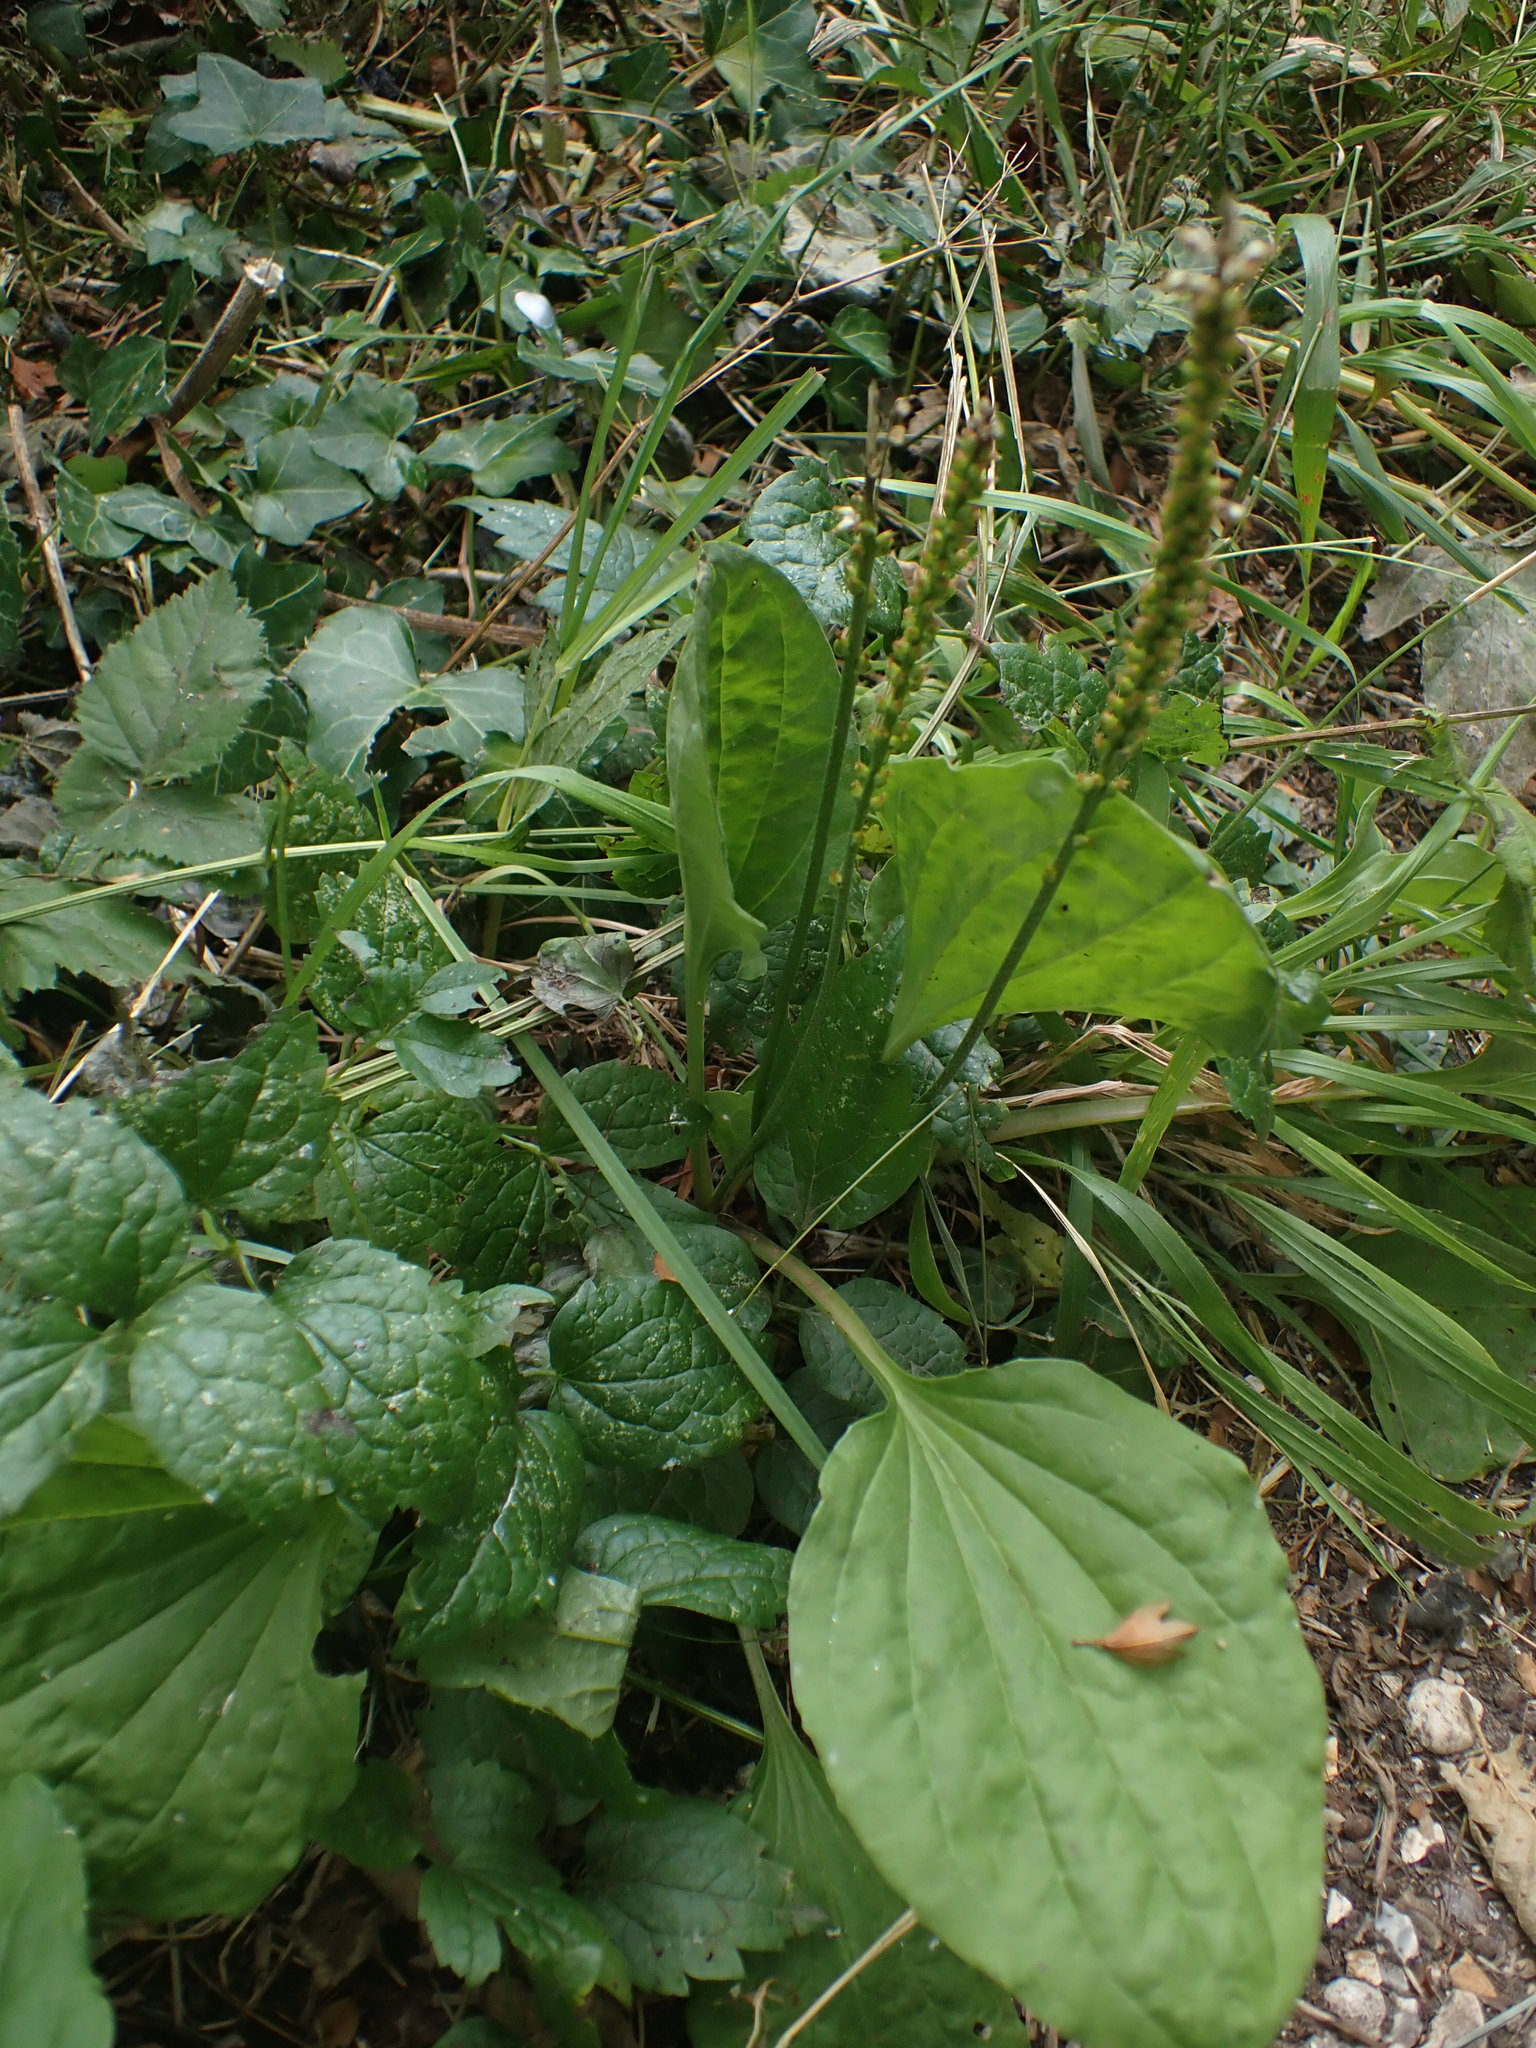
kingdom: Plantae
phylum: Tracheophyta
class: Magnoliopsida
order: Lamiales
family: Plantaginaceae
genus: Plantago
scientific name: Plantago major
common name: Common plantain
